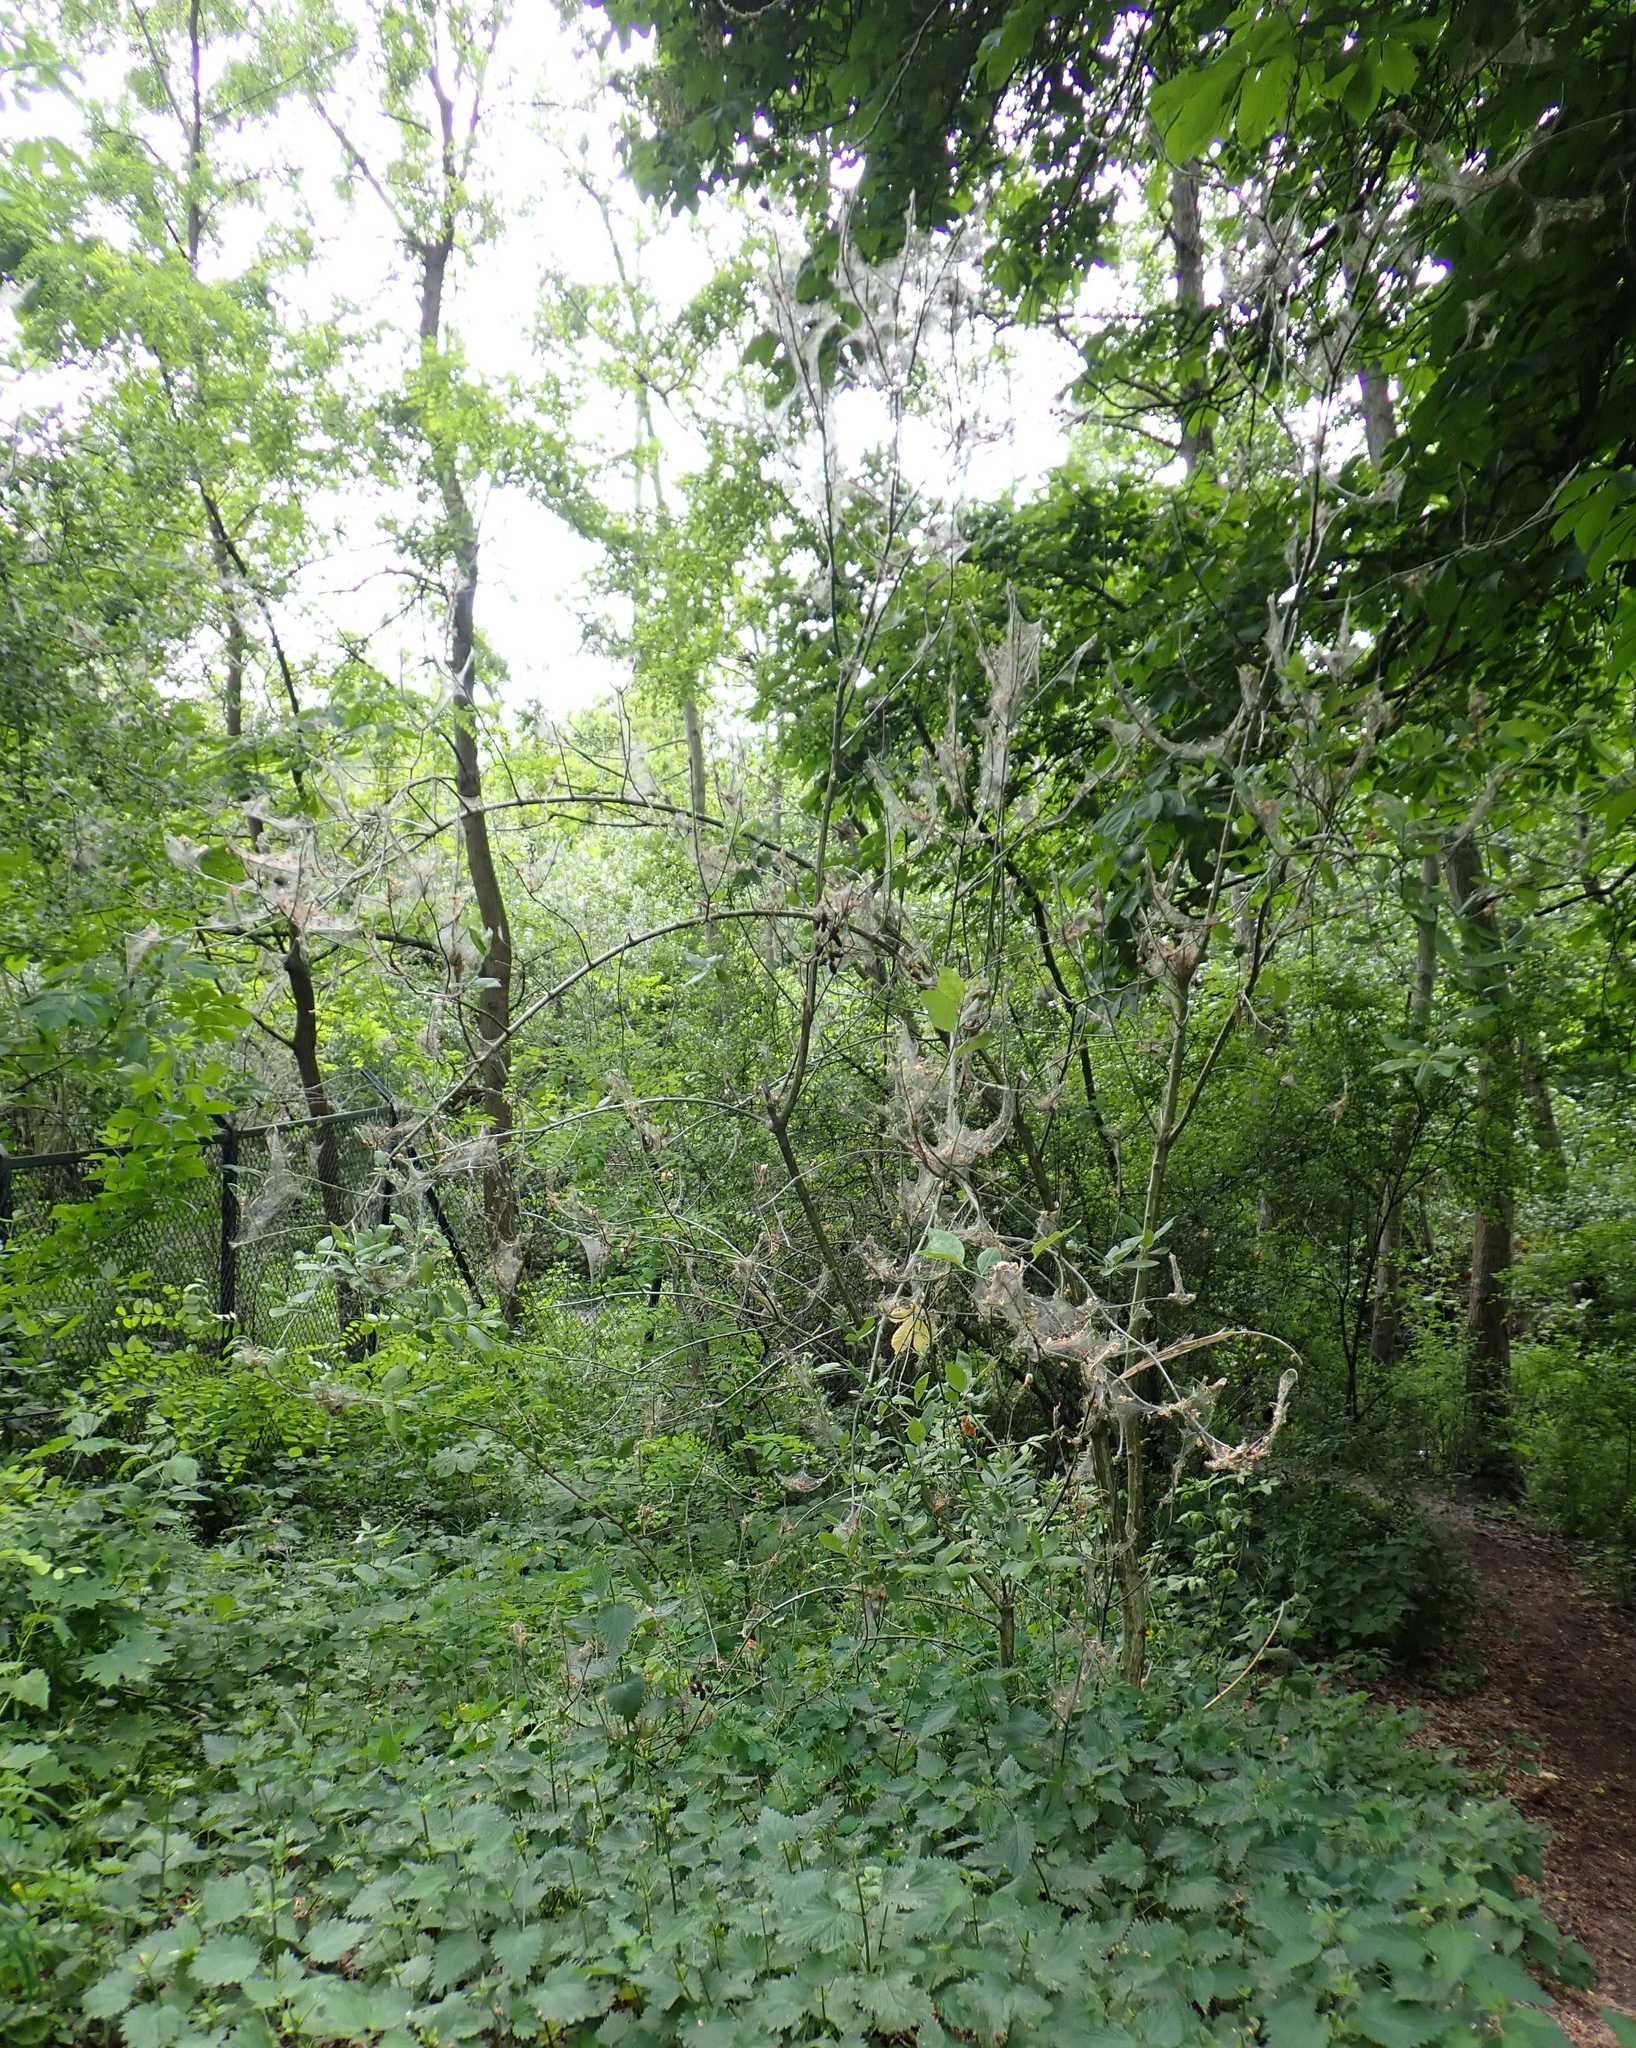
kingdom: Animalia
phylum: Arthropoda
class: Insecta
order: Lepidoptera
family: Yponomeutidae
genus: Yponomeuta
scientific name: Yponomeuta cagnagellus
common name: Spindle ermine
